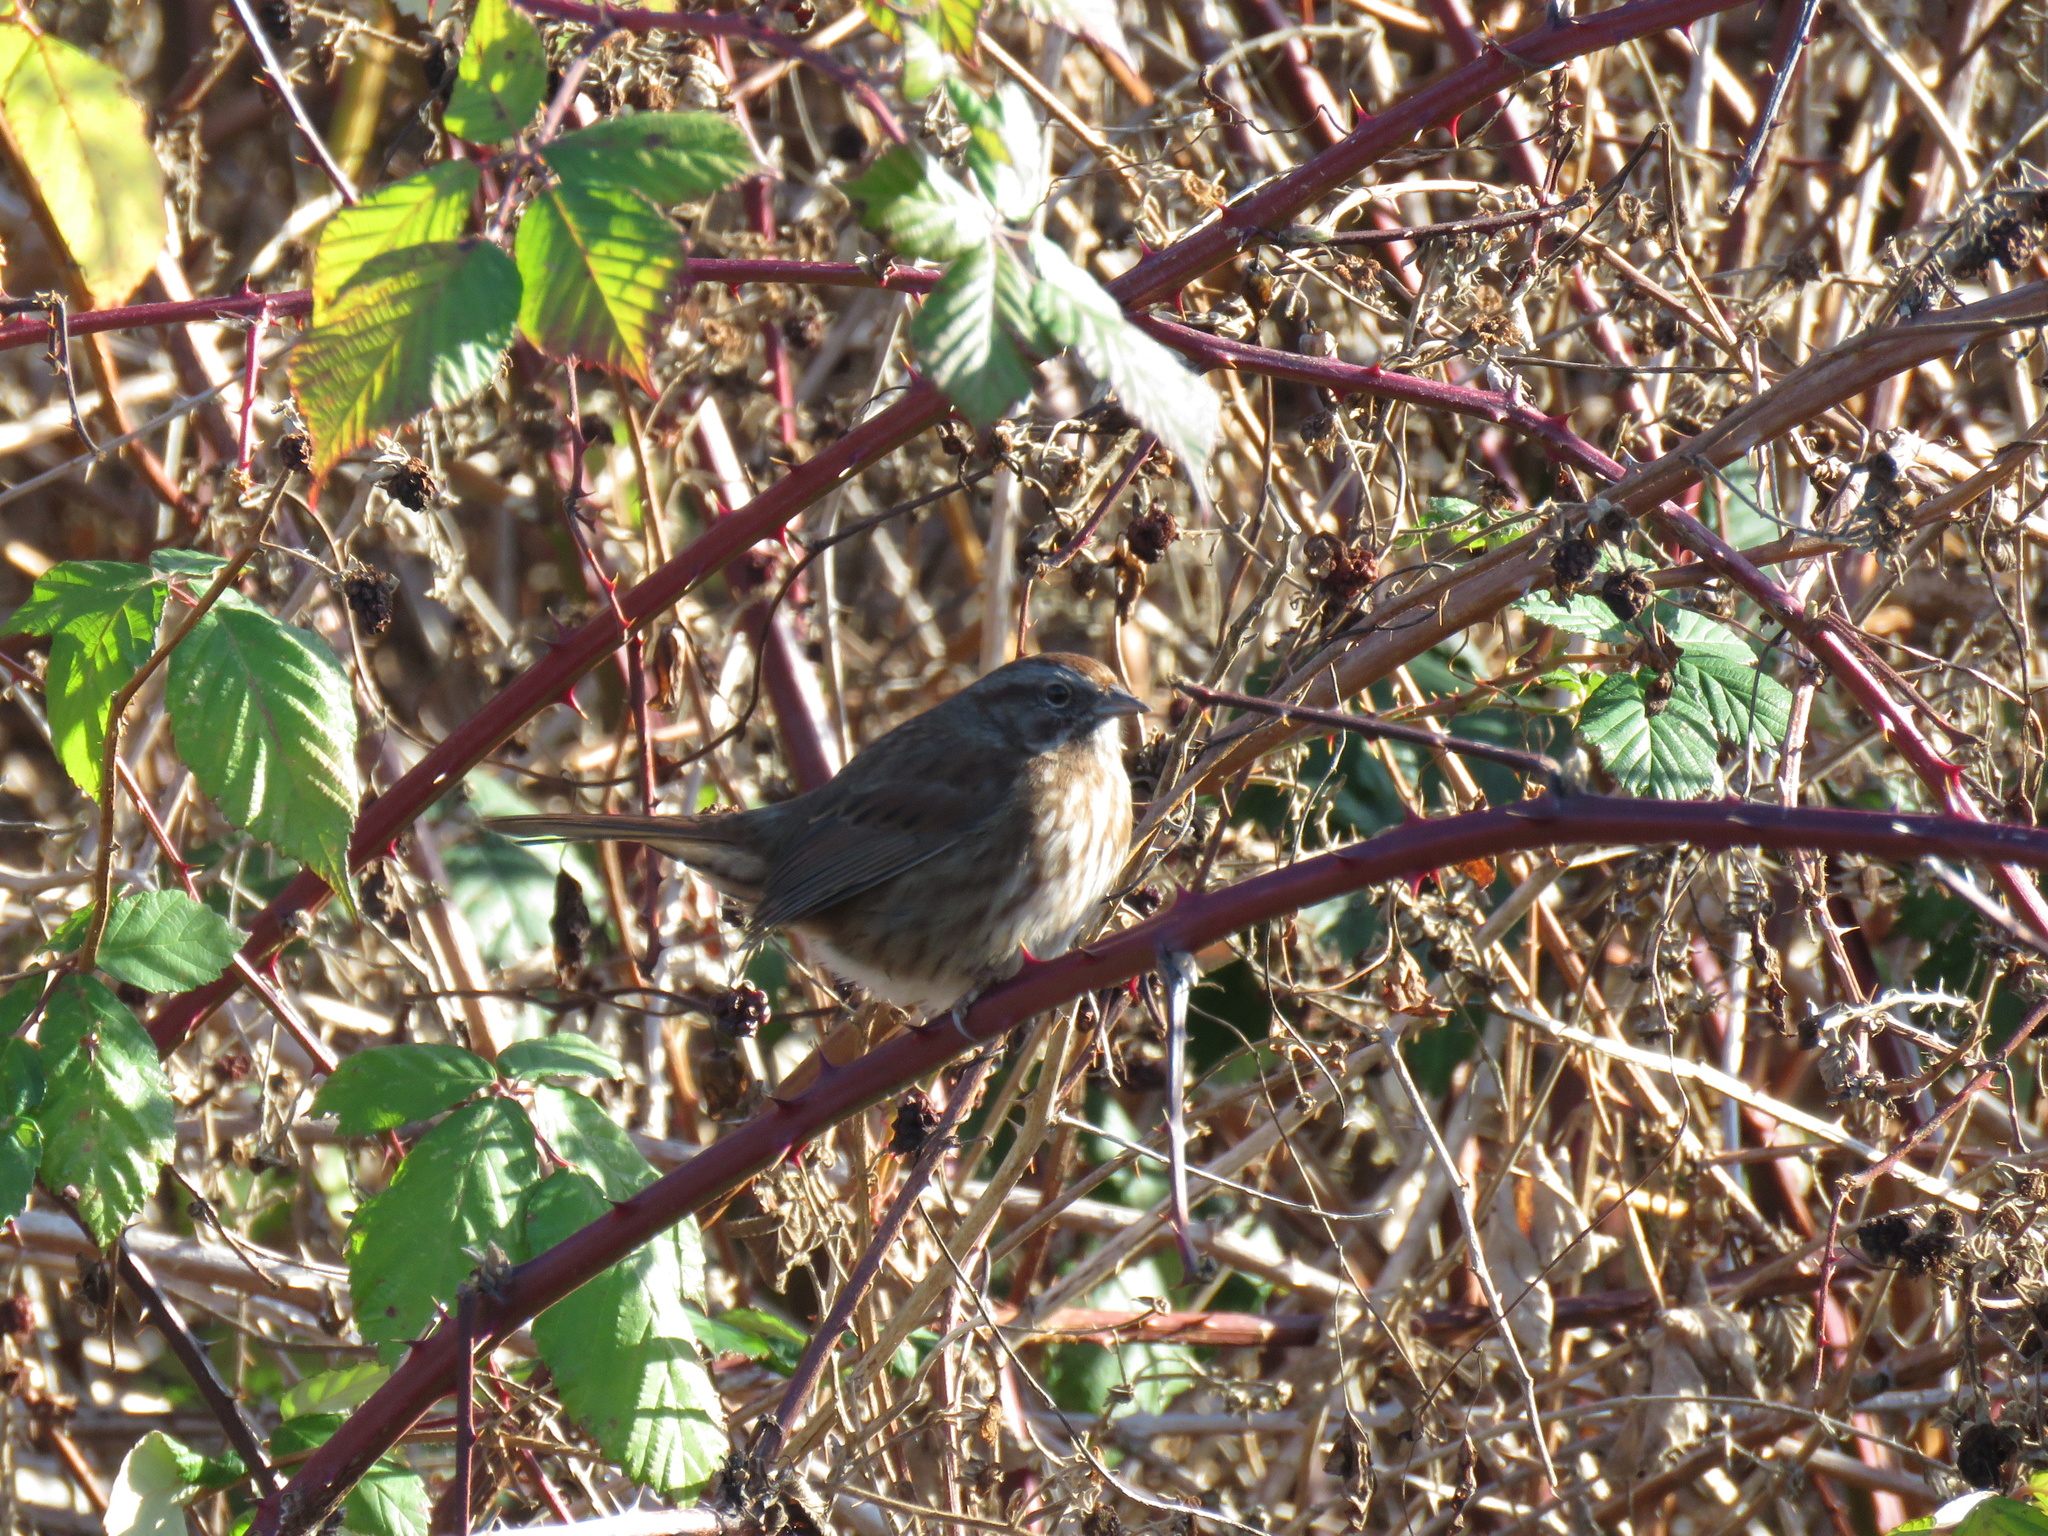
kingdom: Animalia
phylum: Chordata
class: Aves
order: Passeriformes
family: Passerellidae
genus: Melospiza
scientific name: Melospiza melodia
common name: Song sparrow
